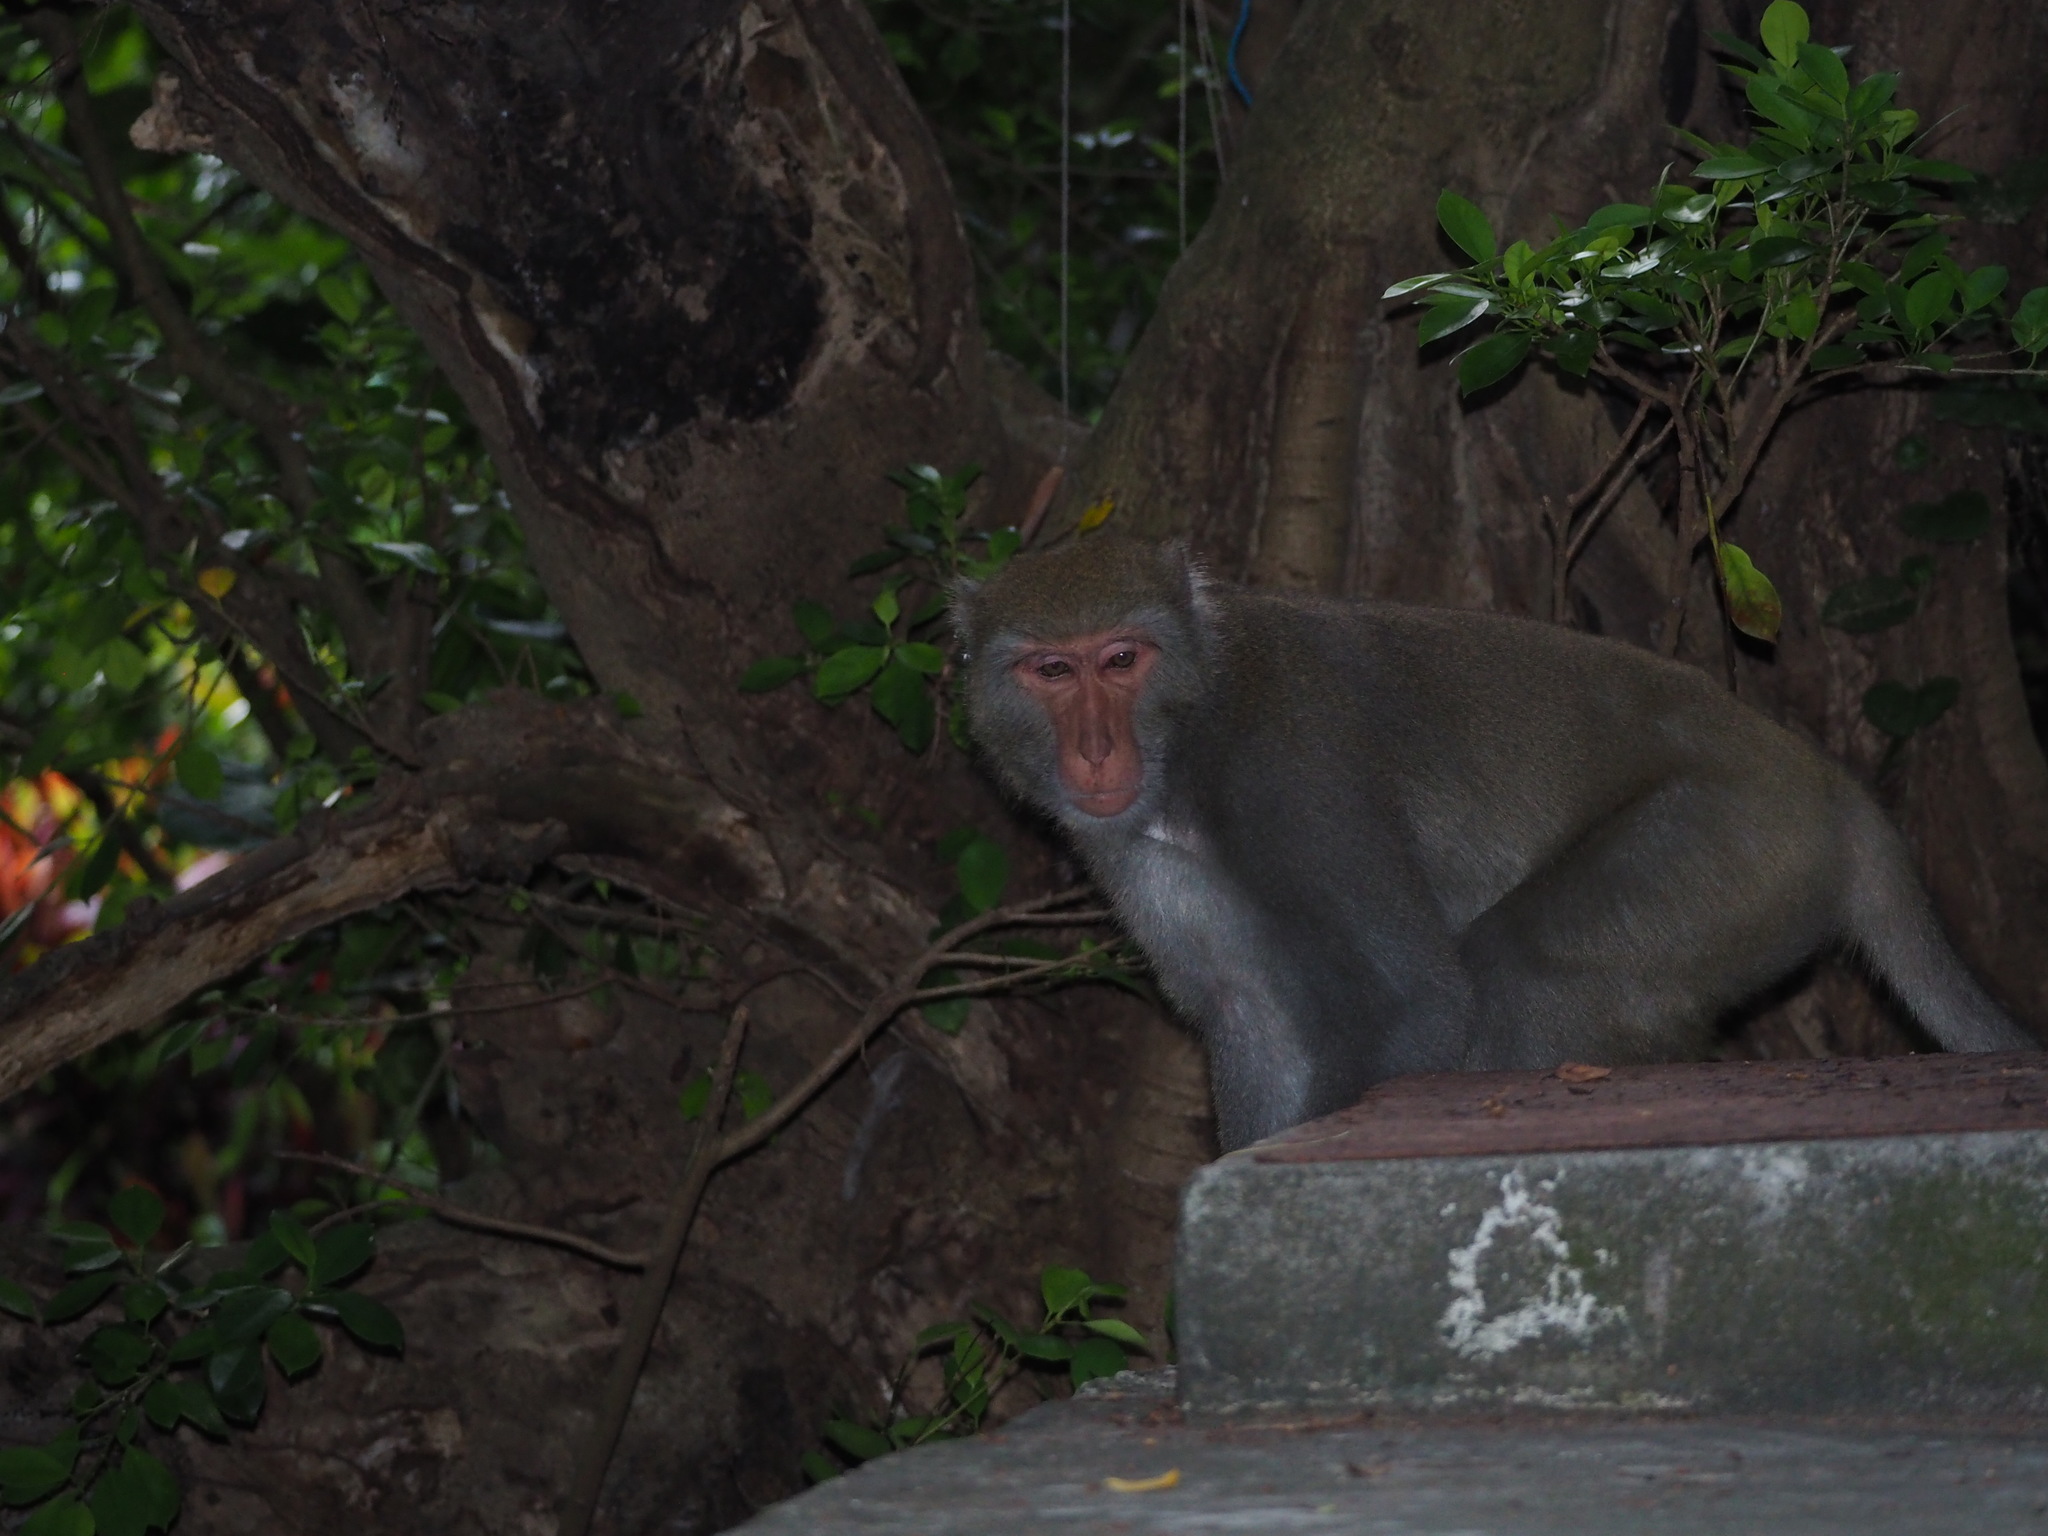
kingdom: Animalia
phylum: Chordata
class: Mammalia
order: Primates
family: Cercopithecidae
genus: Macaca
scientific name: Macaca cyclopis
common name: Formosan rock macaque
